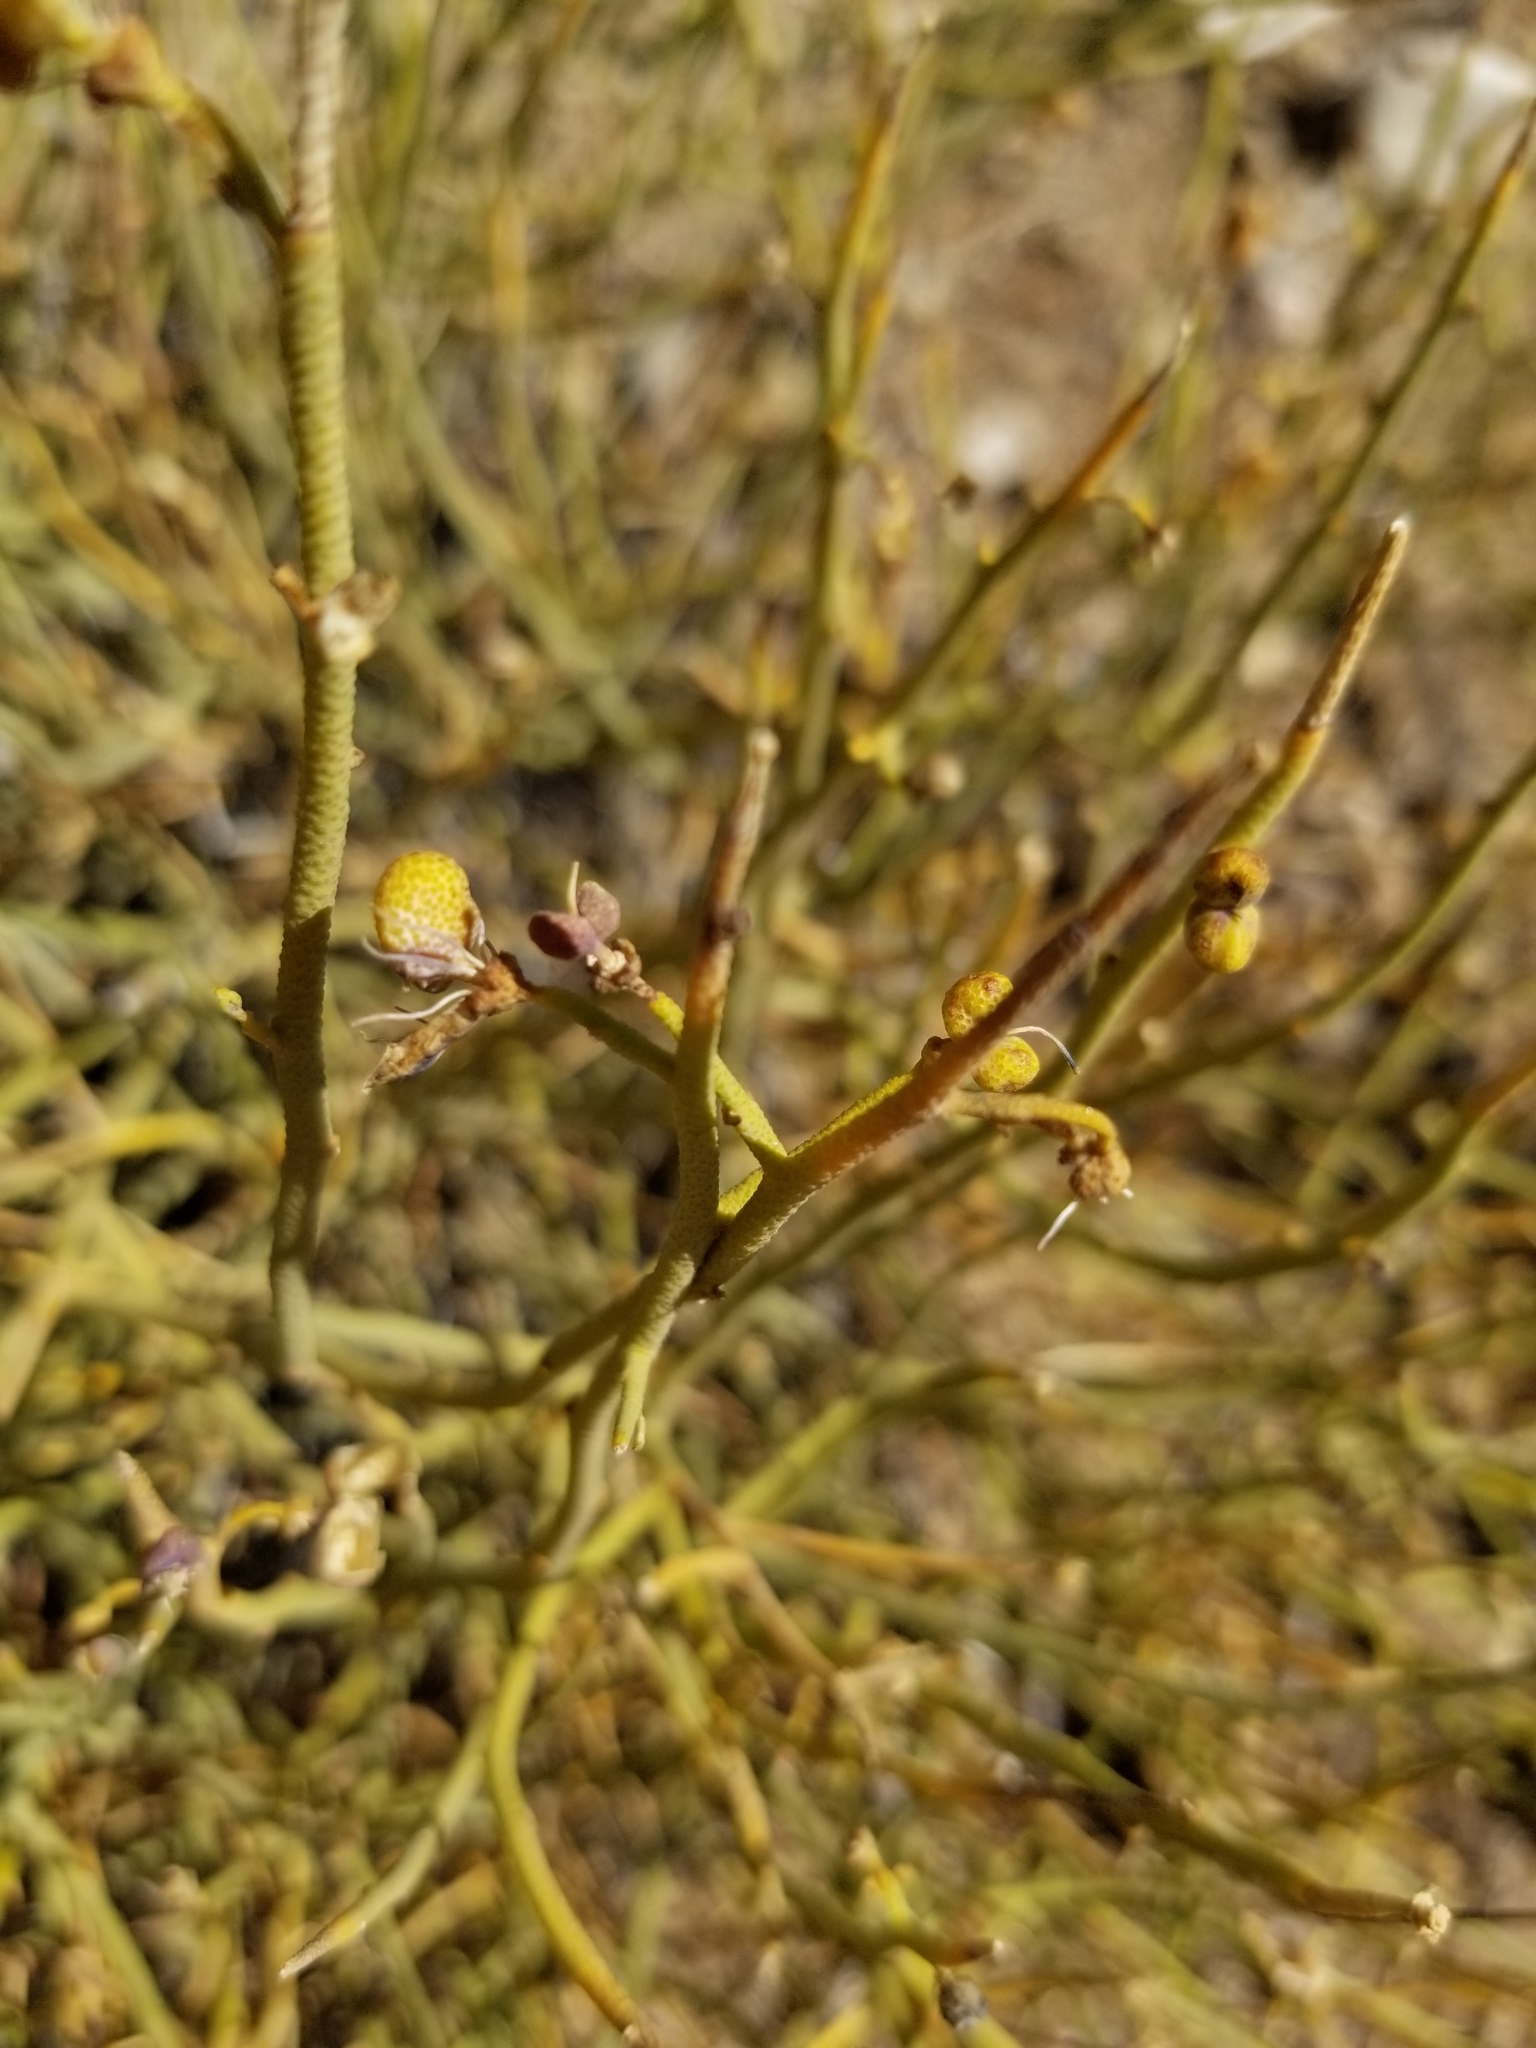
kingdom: Plantae
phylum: Tracheophyta
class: Magnoliopsida
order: Sapindales
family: Rutaceae
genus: Thamnosma
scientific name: Thamnosma montana
